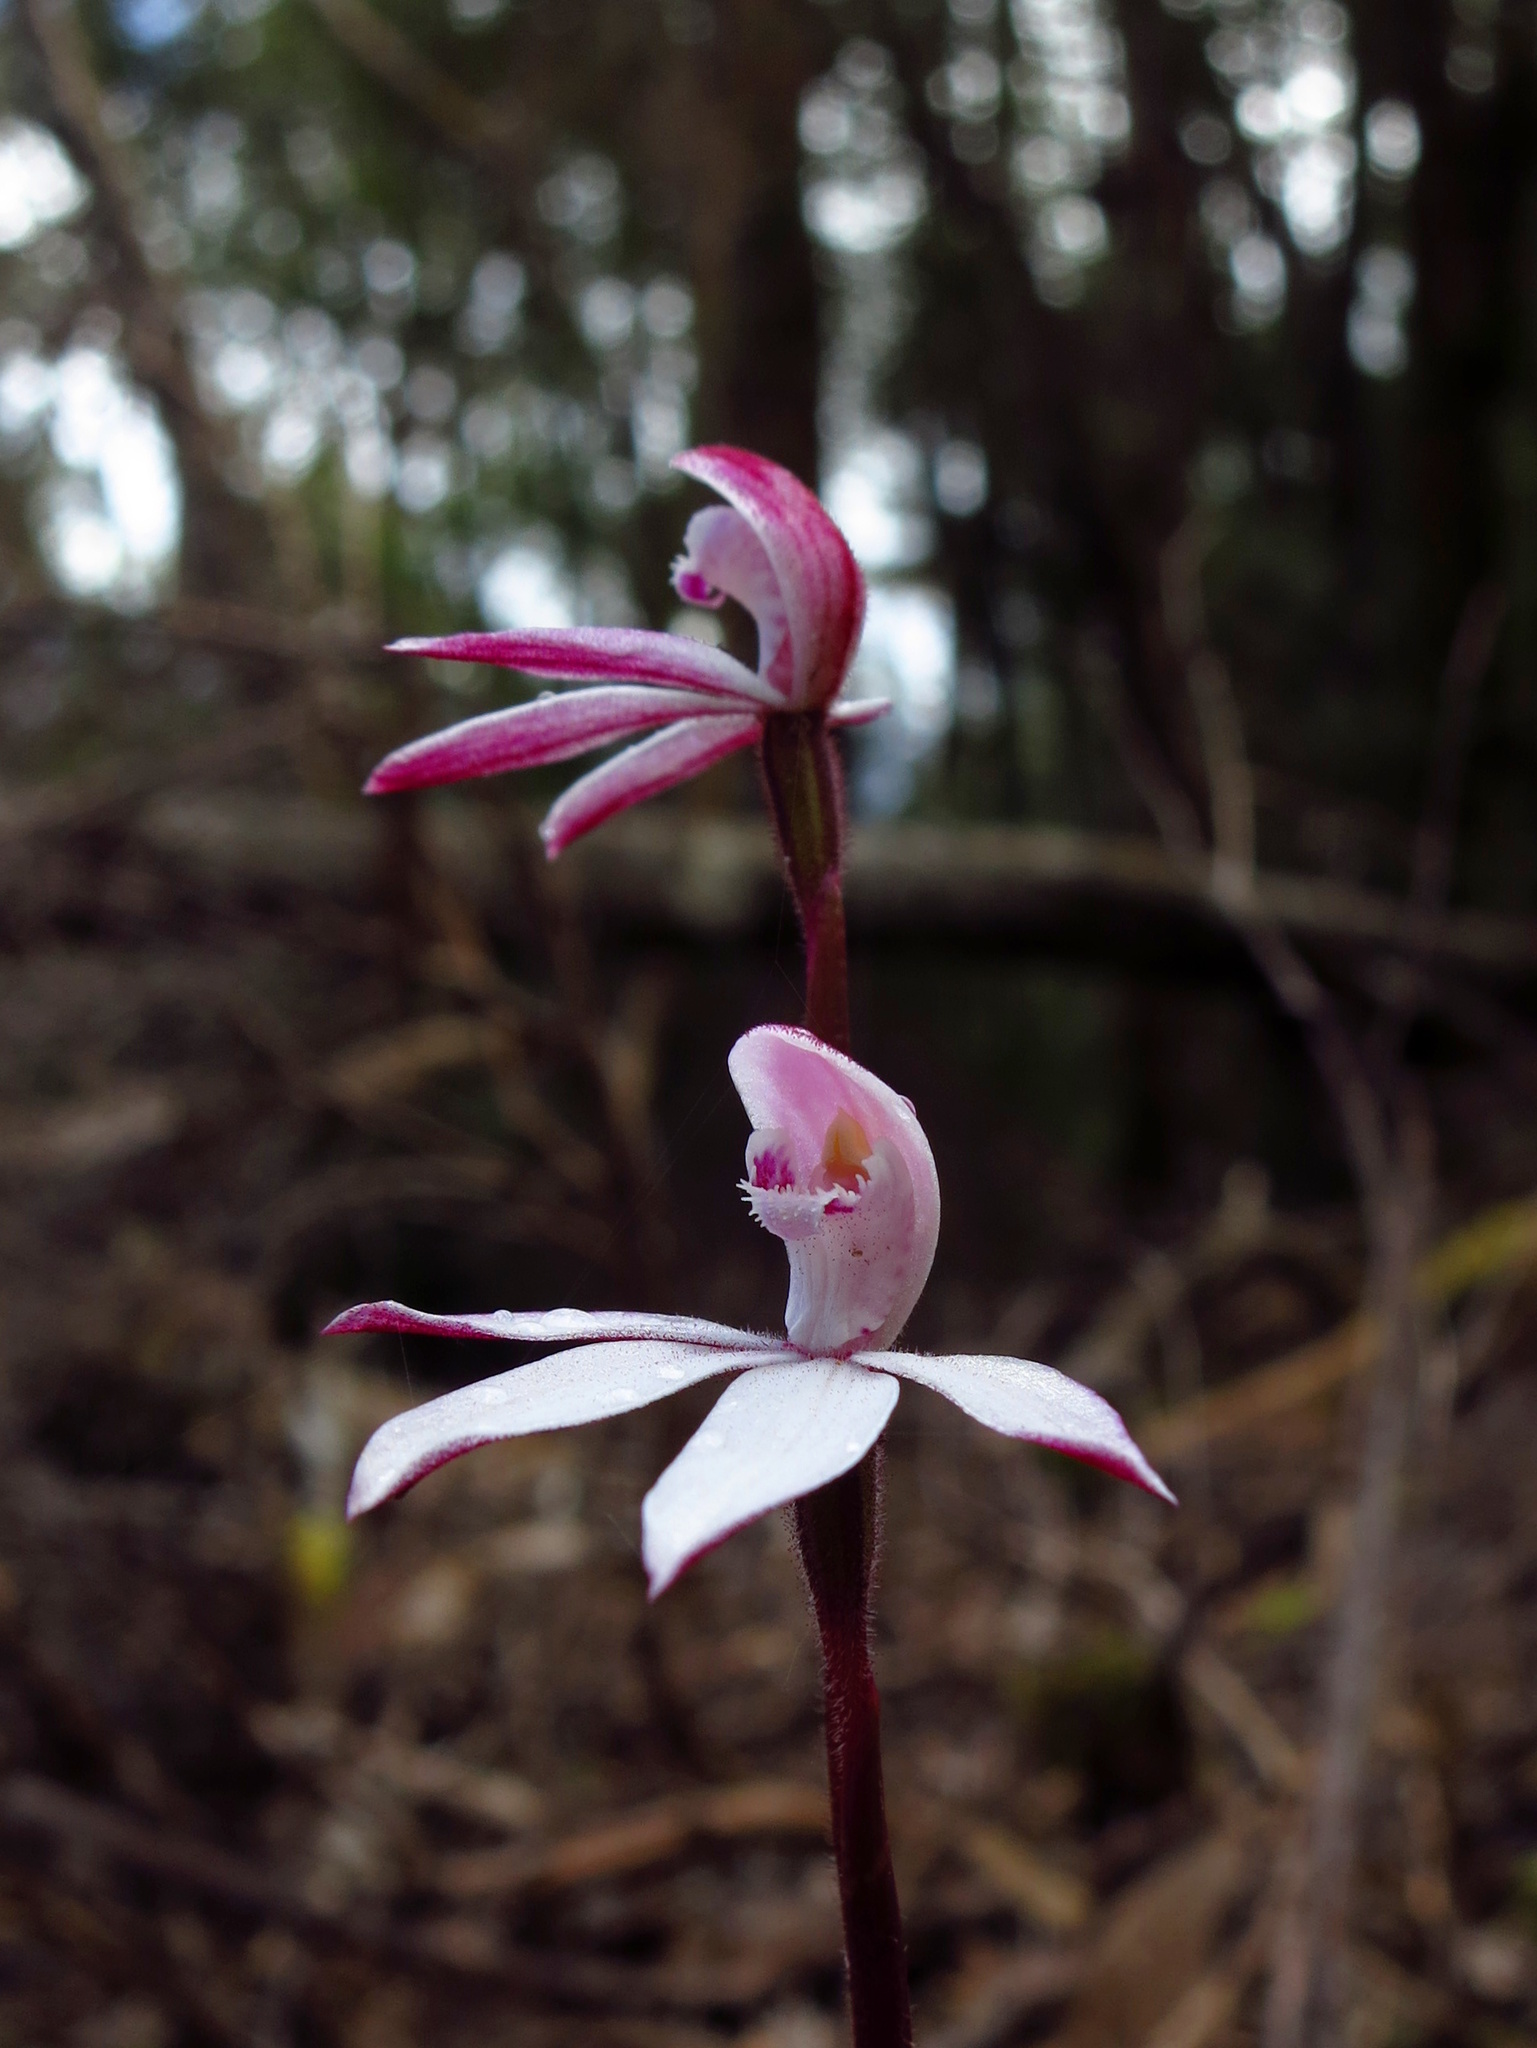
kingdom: Plantae
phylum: Tracheophyta
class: Liliopsida
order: Asparagales
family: Orchidaceae
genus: Caladenia
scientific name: Caladenia alpina
